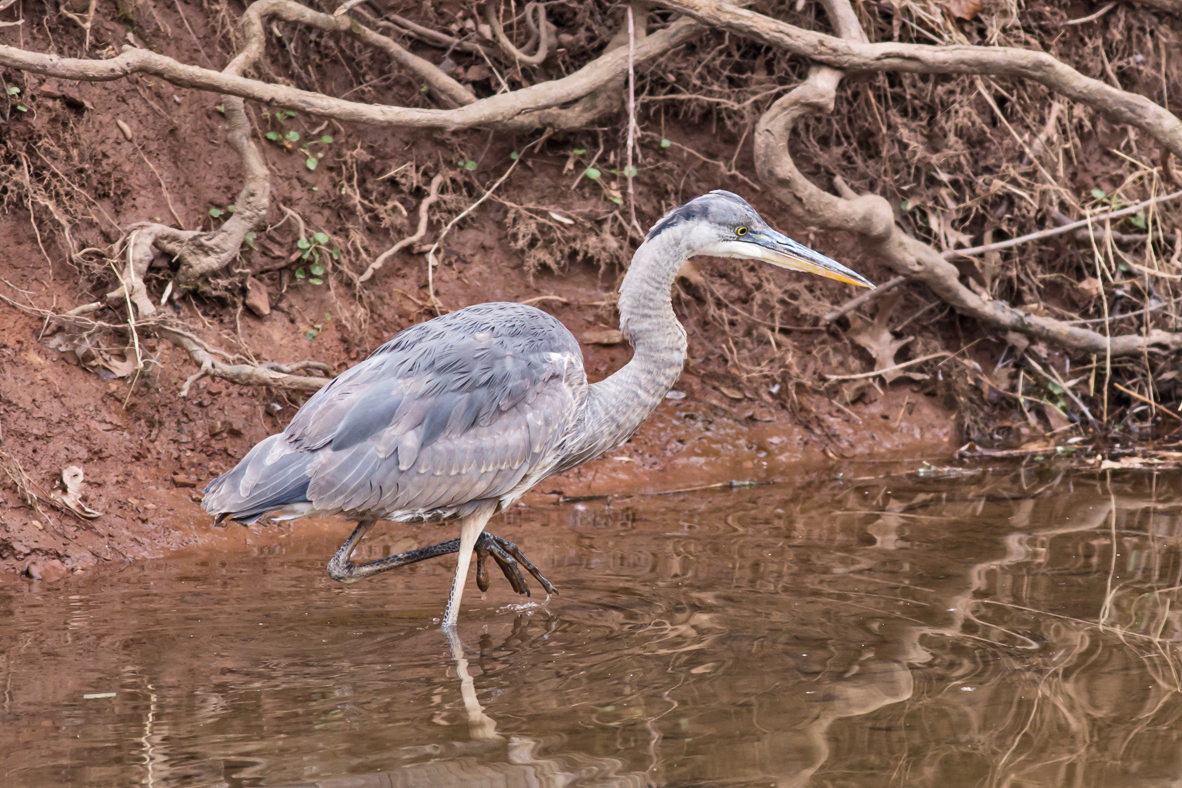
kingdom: Animalia
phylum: Chordata
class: Aves
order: Pelecaniformes
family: Ardeidae
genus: Ardea
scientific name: Ardea herodias
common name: Great blue heron
